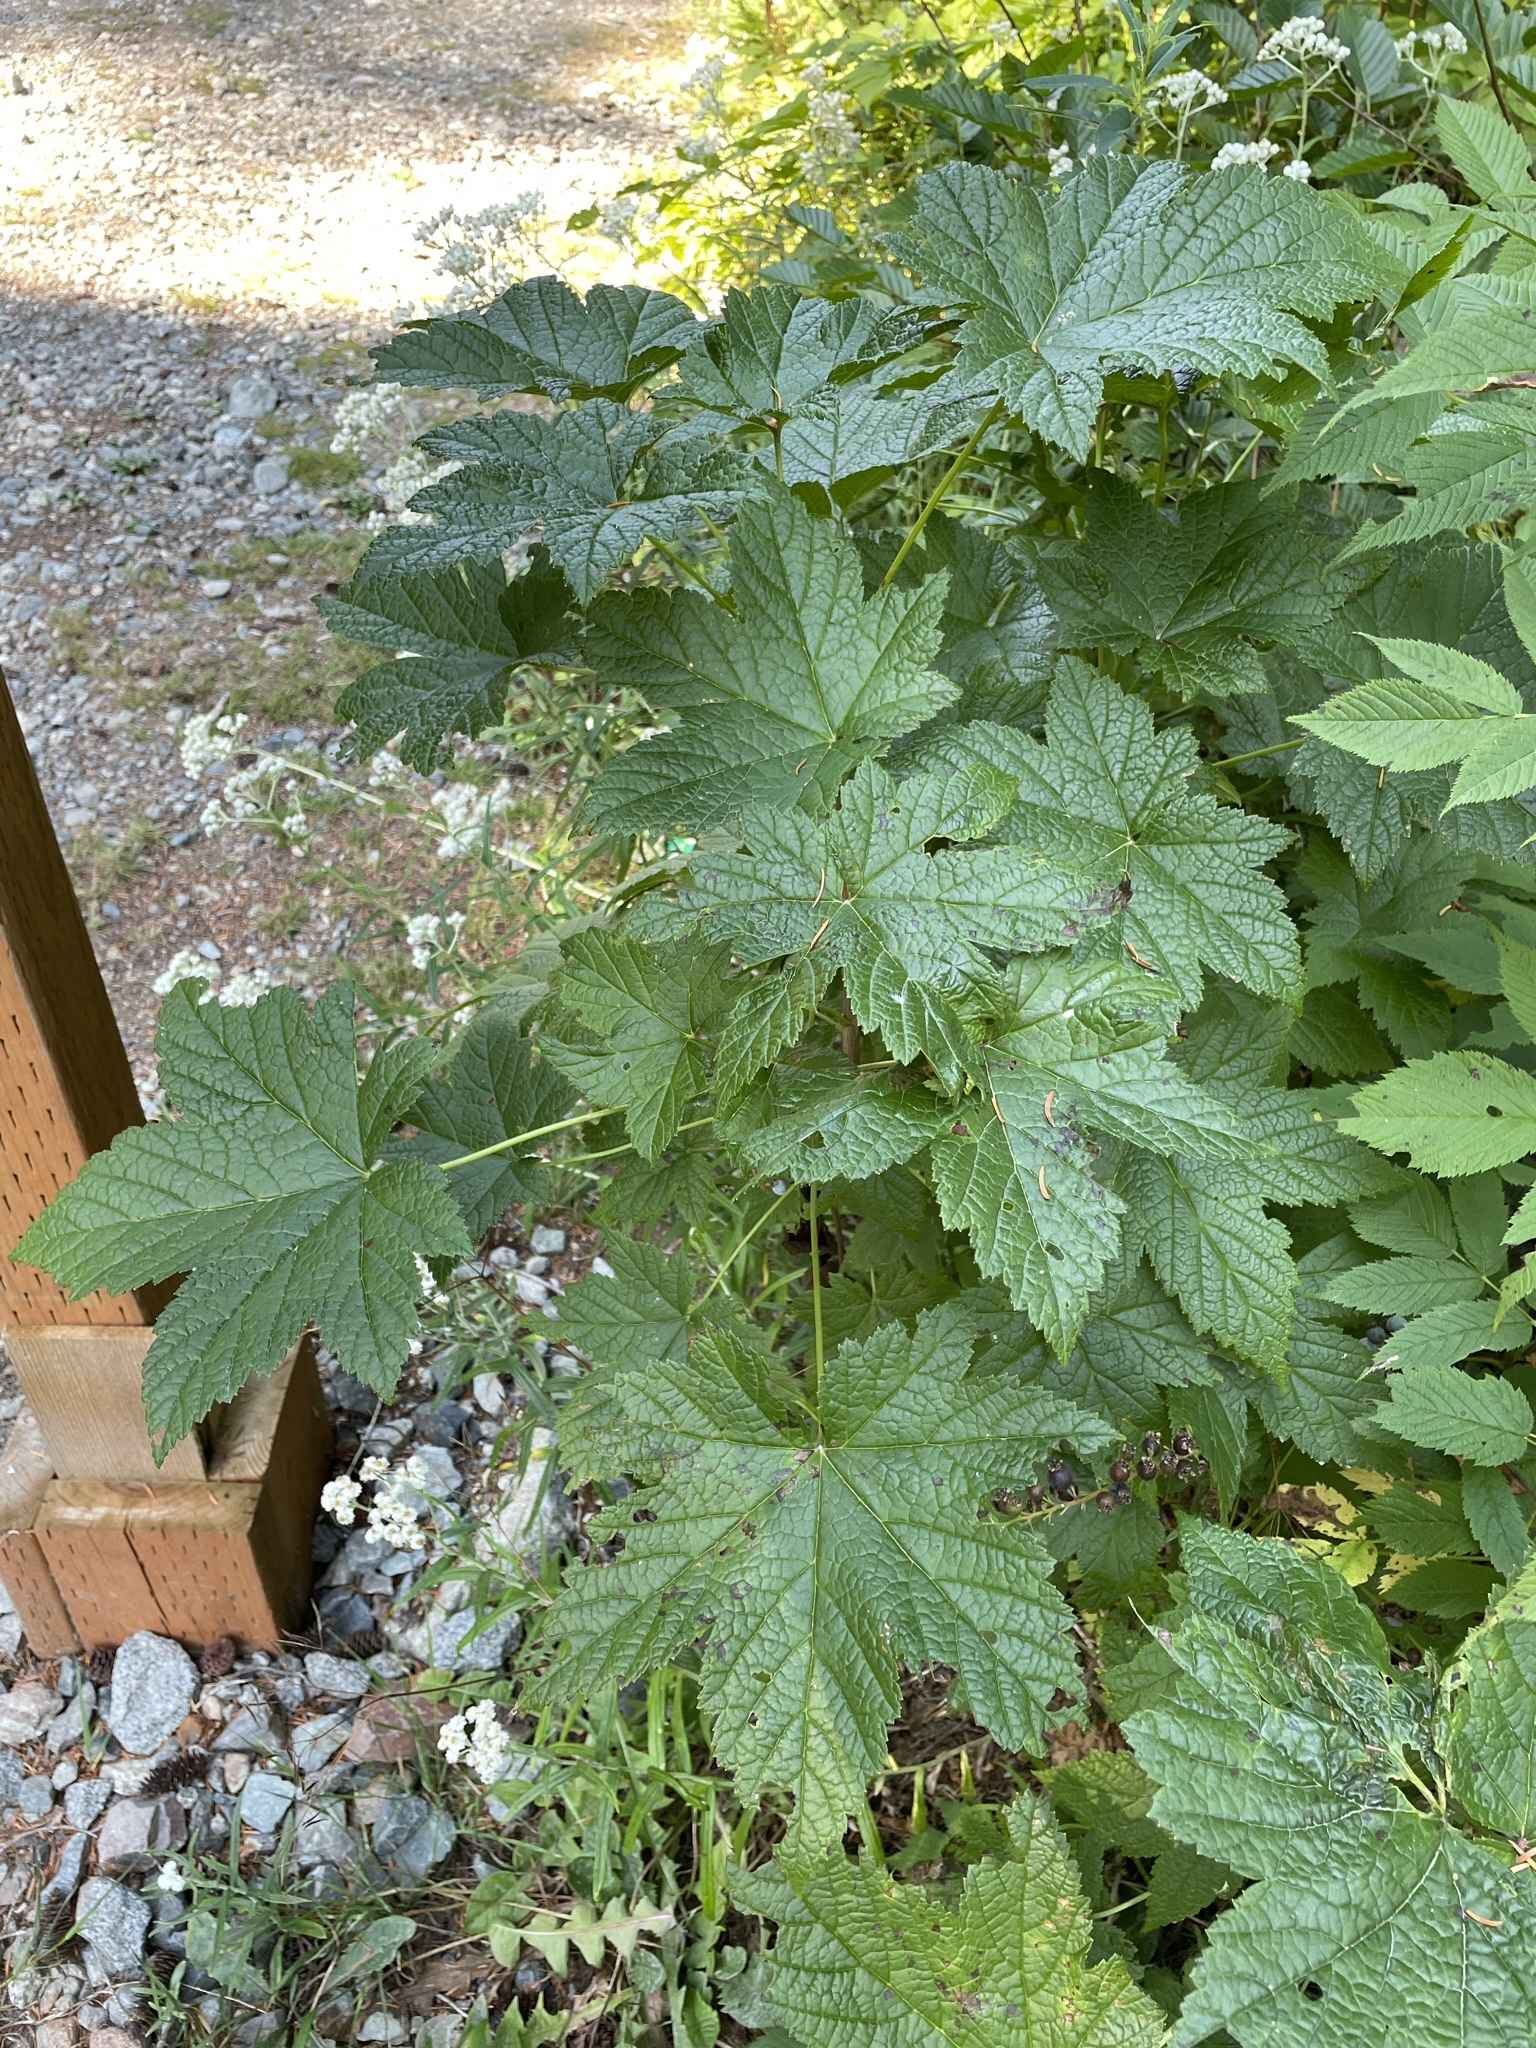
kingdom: Plantae
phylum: Tracheophyta
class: Magnoliopsida
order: Saxifragales
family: Grossulariaceae
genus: Ribes
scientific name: Ribes bracteosum
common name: California black currant
